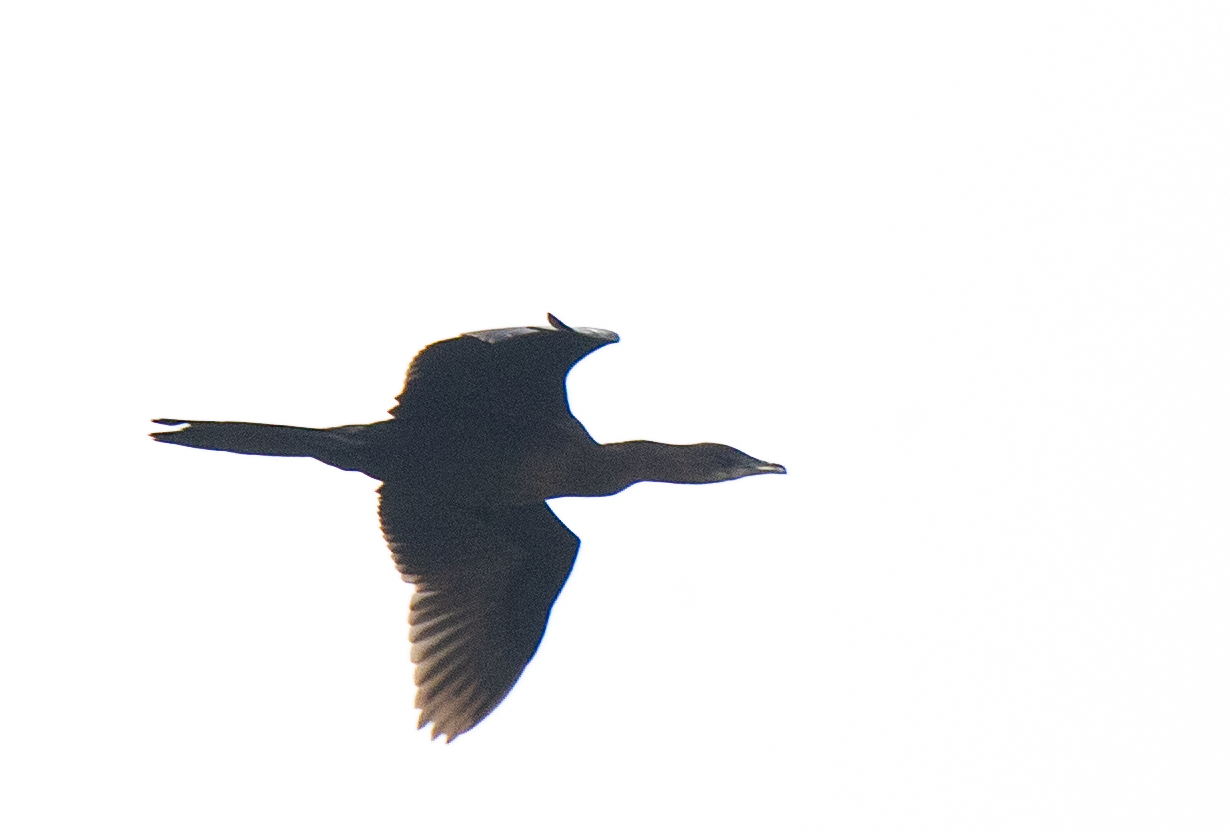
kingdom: Animalia
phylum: Chordata
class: Aves
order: Suliformes
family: Phalacrocoracidae
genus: Microcarbo
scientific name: Microcarbo pygmaeus
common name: Pygmy cormorant
